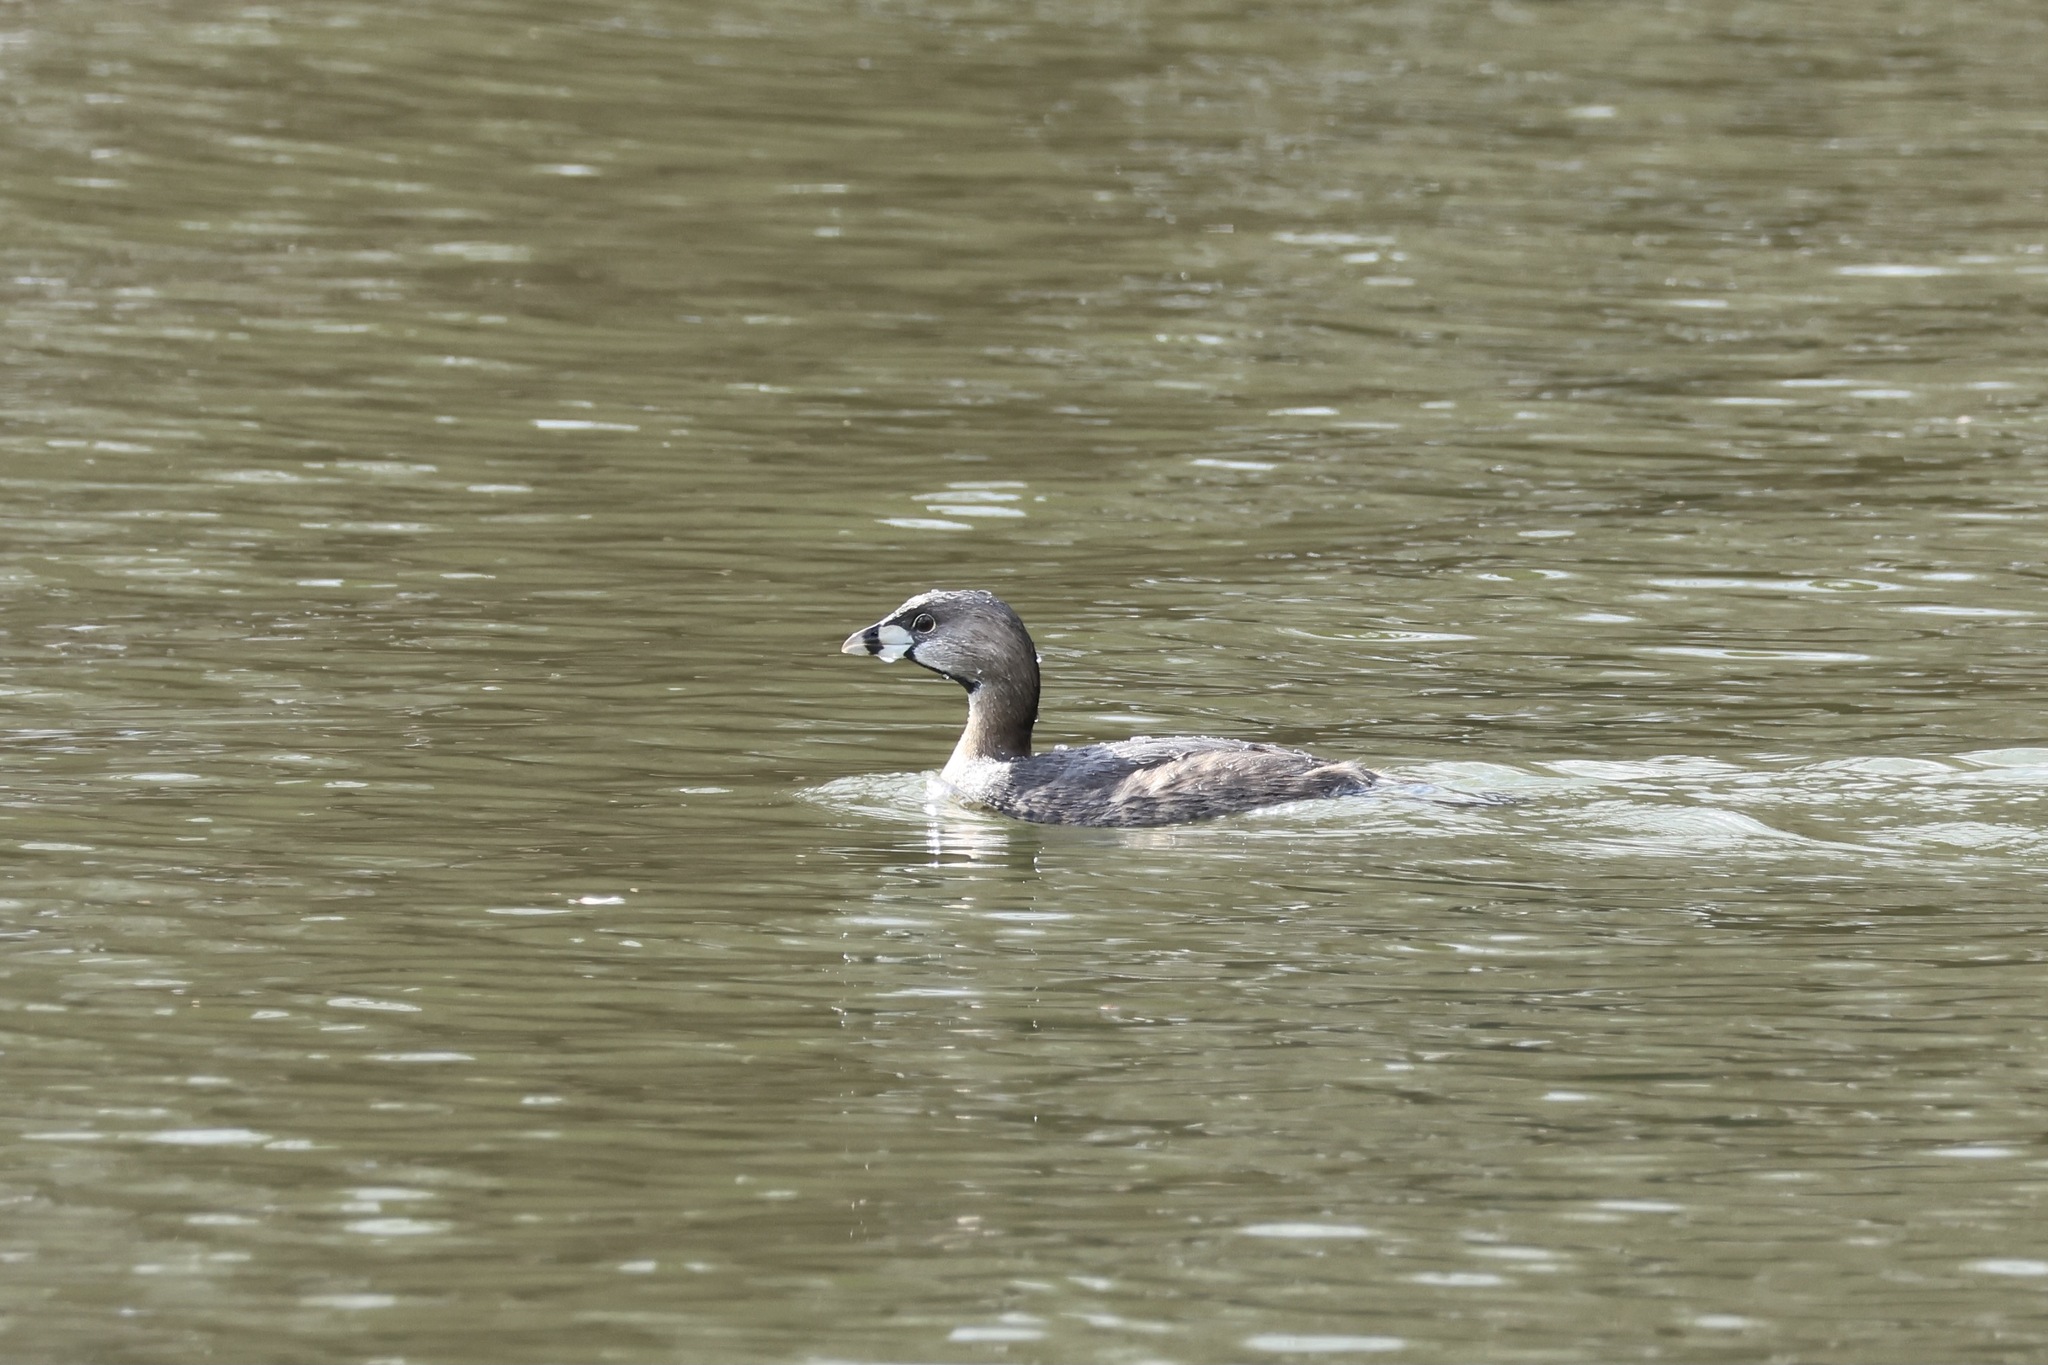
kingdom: Animalia
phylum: Chordata
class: Aves
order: Podicipediformes
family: Podicipedidae
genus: Podilymbus
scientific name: Podilymbus podiceps
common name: Pied-billed grebe
